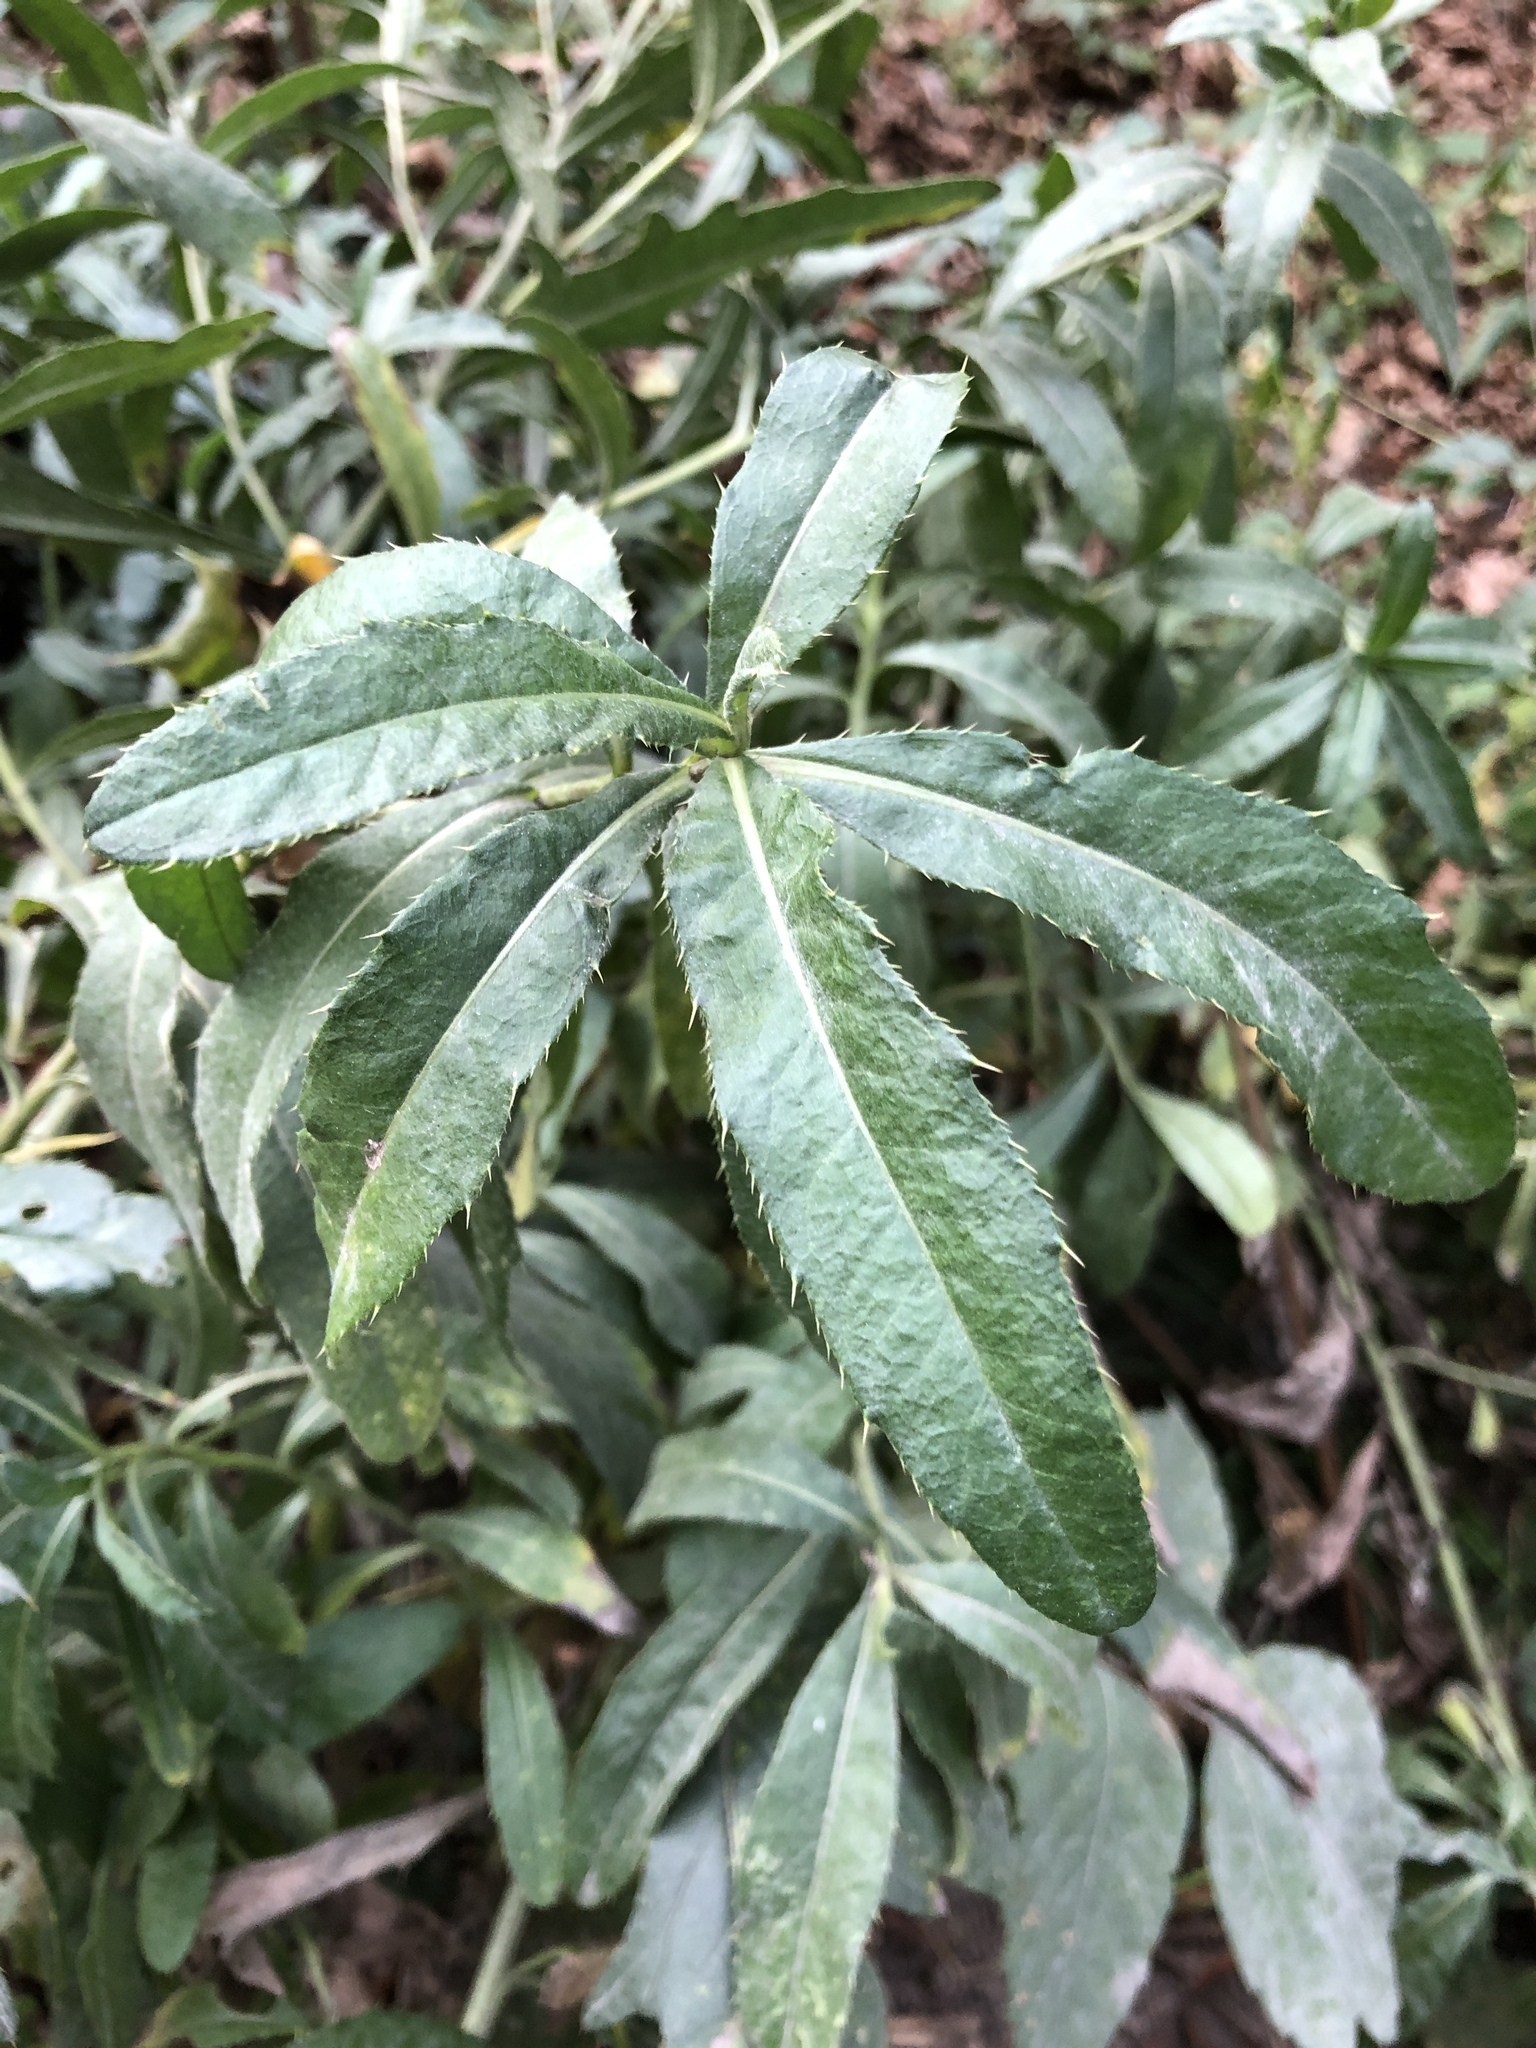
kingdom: Plantae
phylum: Tracheophyta
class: Magnoliopsida
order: Asterales
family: Asteraceae
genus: Cirsium
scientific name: Cirsium arvense
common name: Creeping thistle
